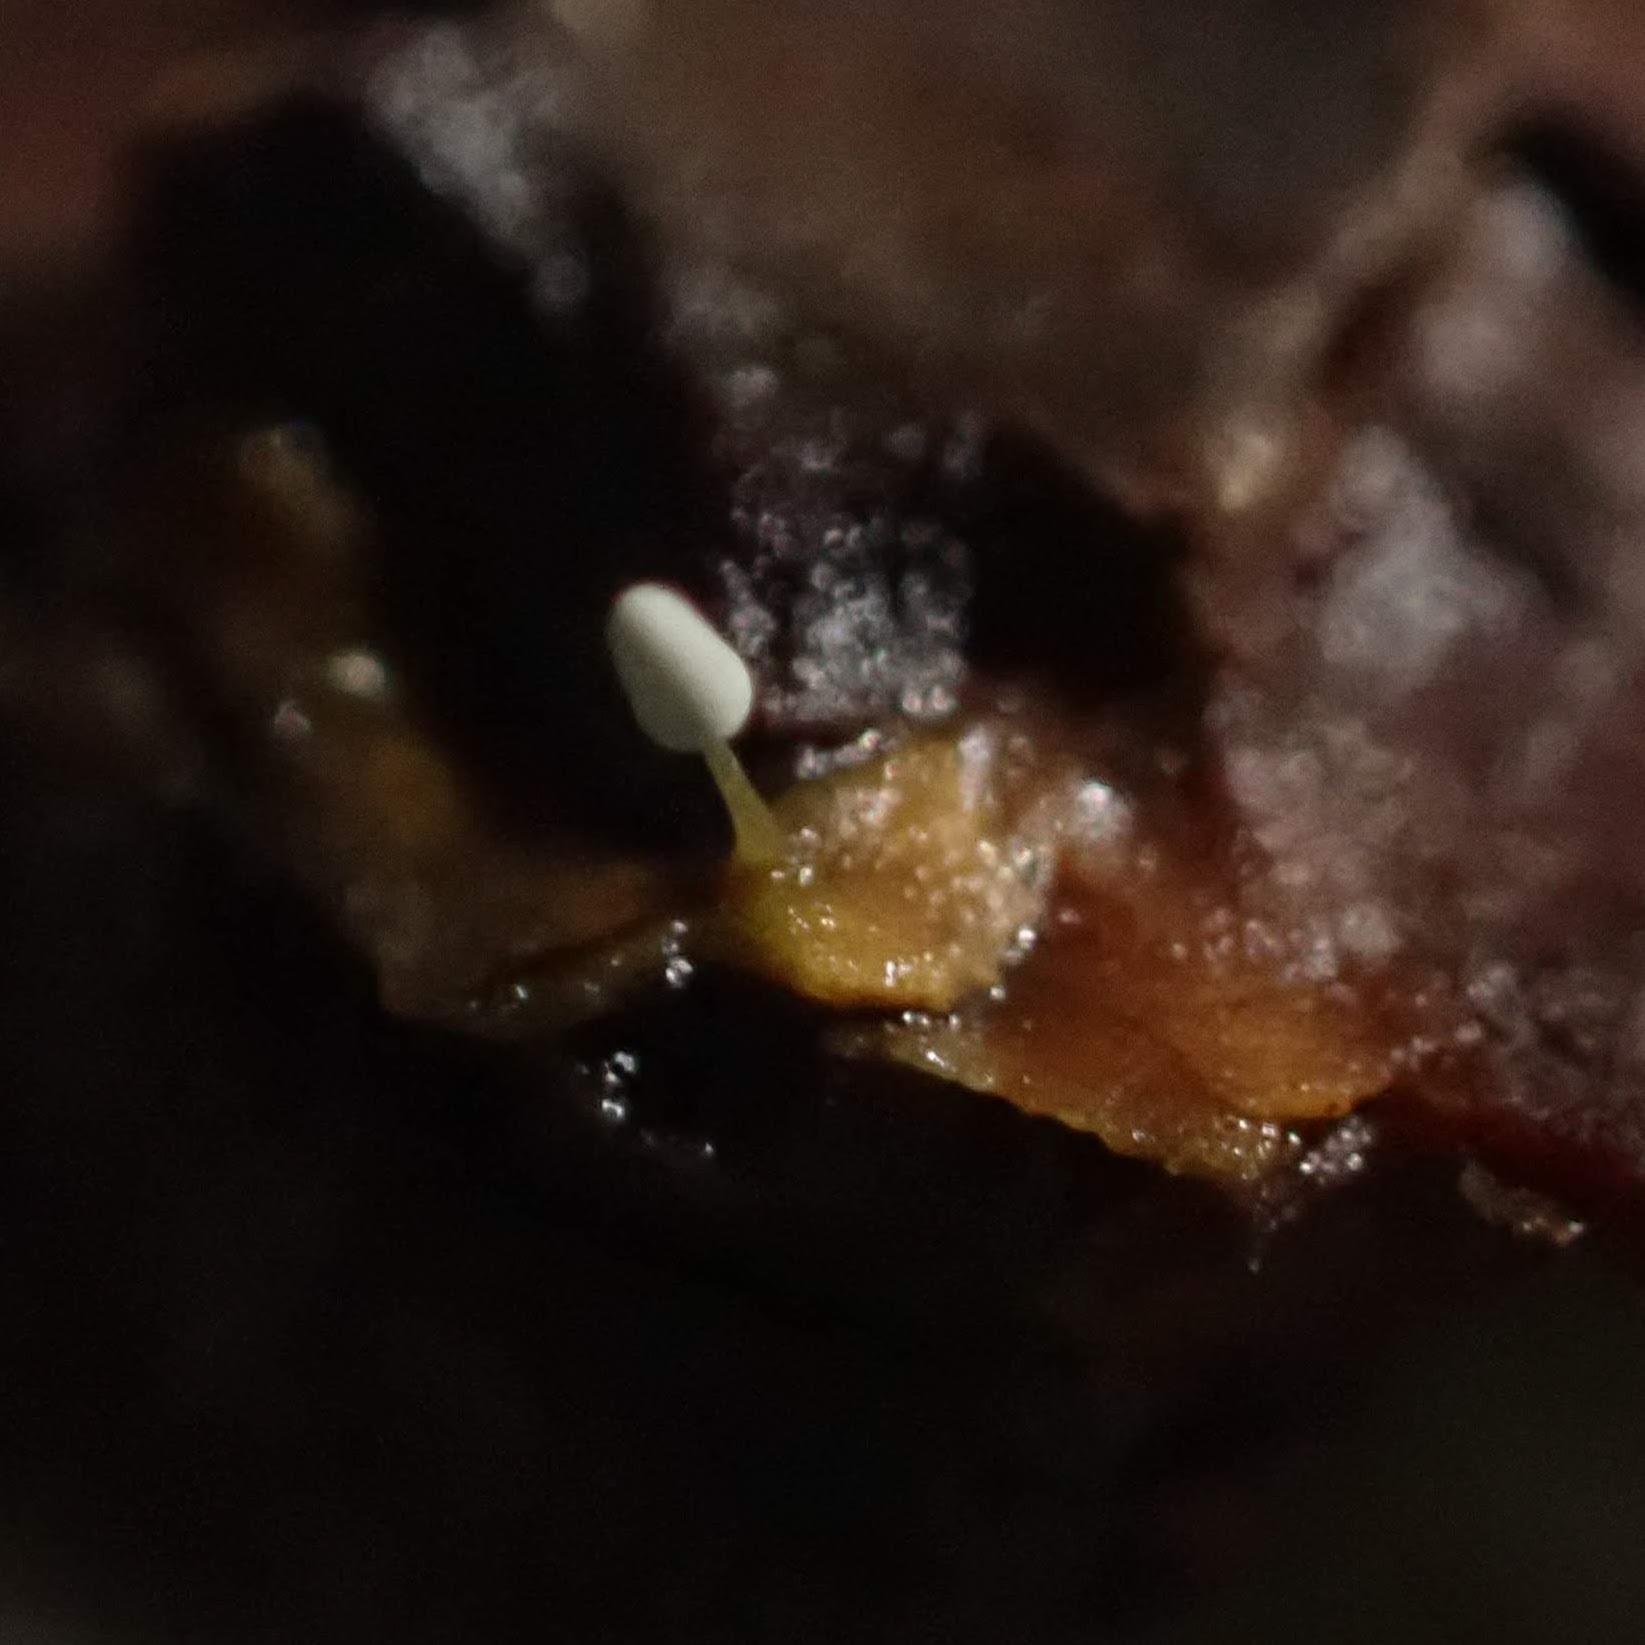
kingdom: Protozoa
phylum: Mycetozoa
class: Myxomycetes
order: Trichiales
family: Arcyriaceae
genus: Arcyria
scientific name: Arcyria cinerea
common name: White carnival candy slime mold
